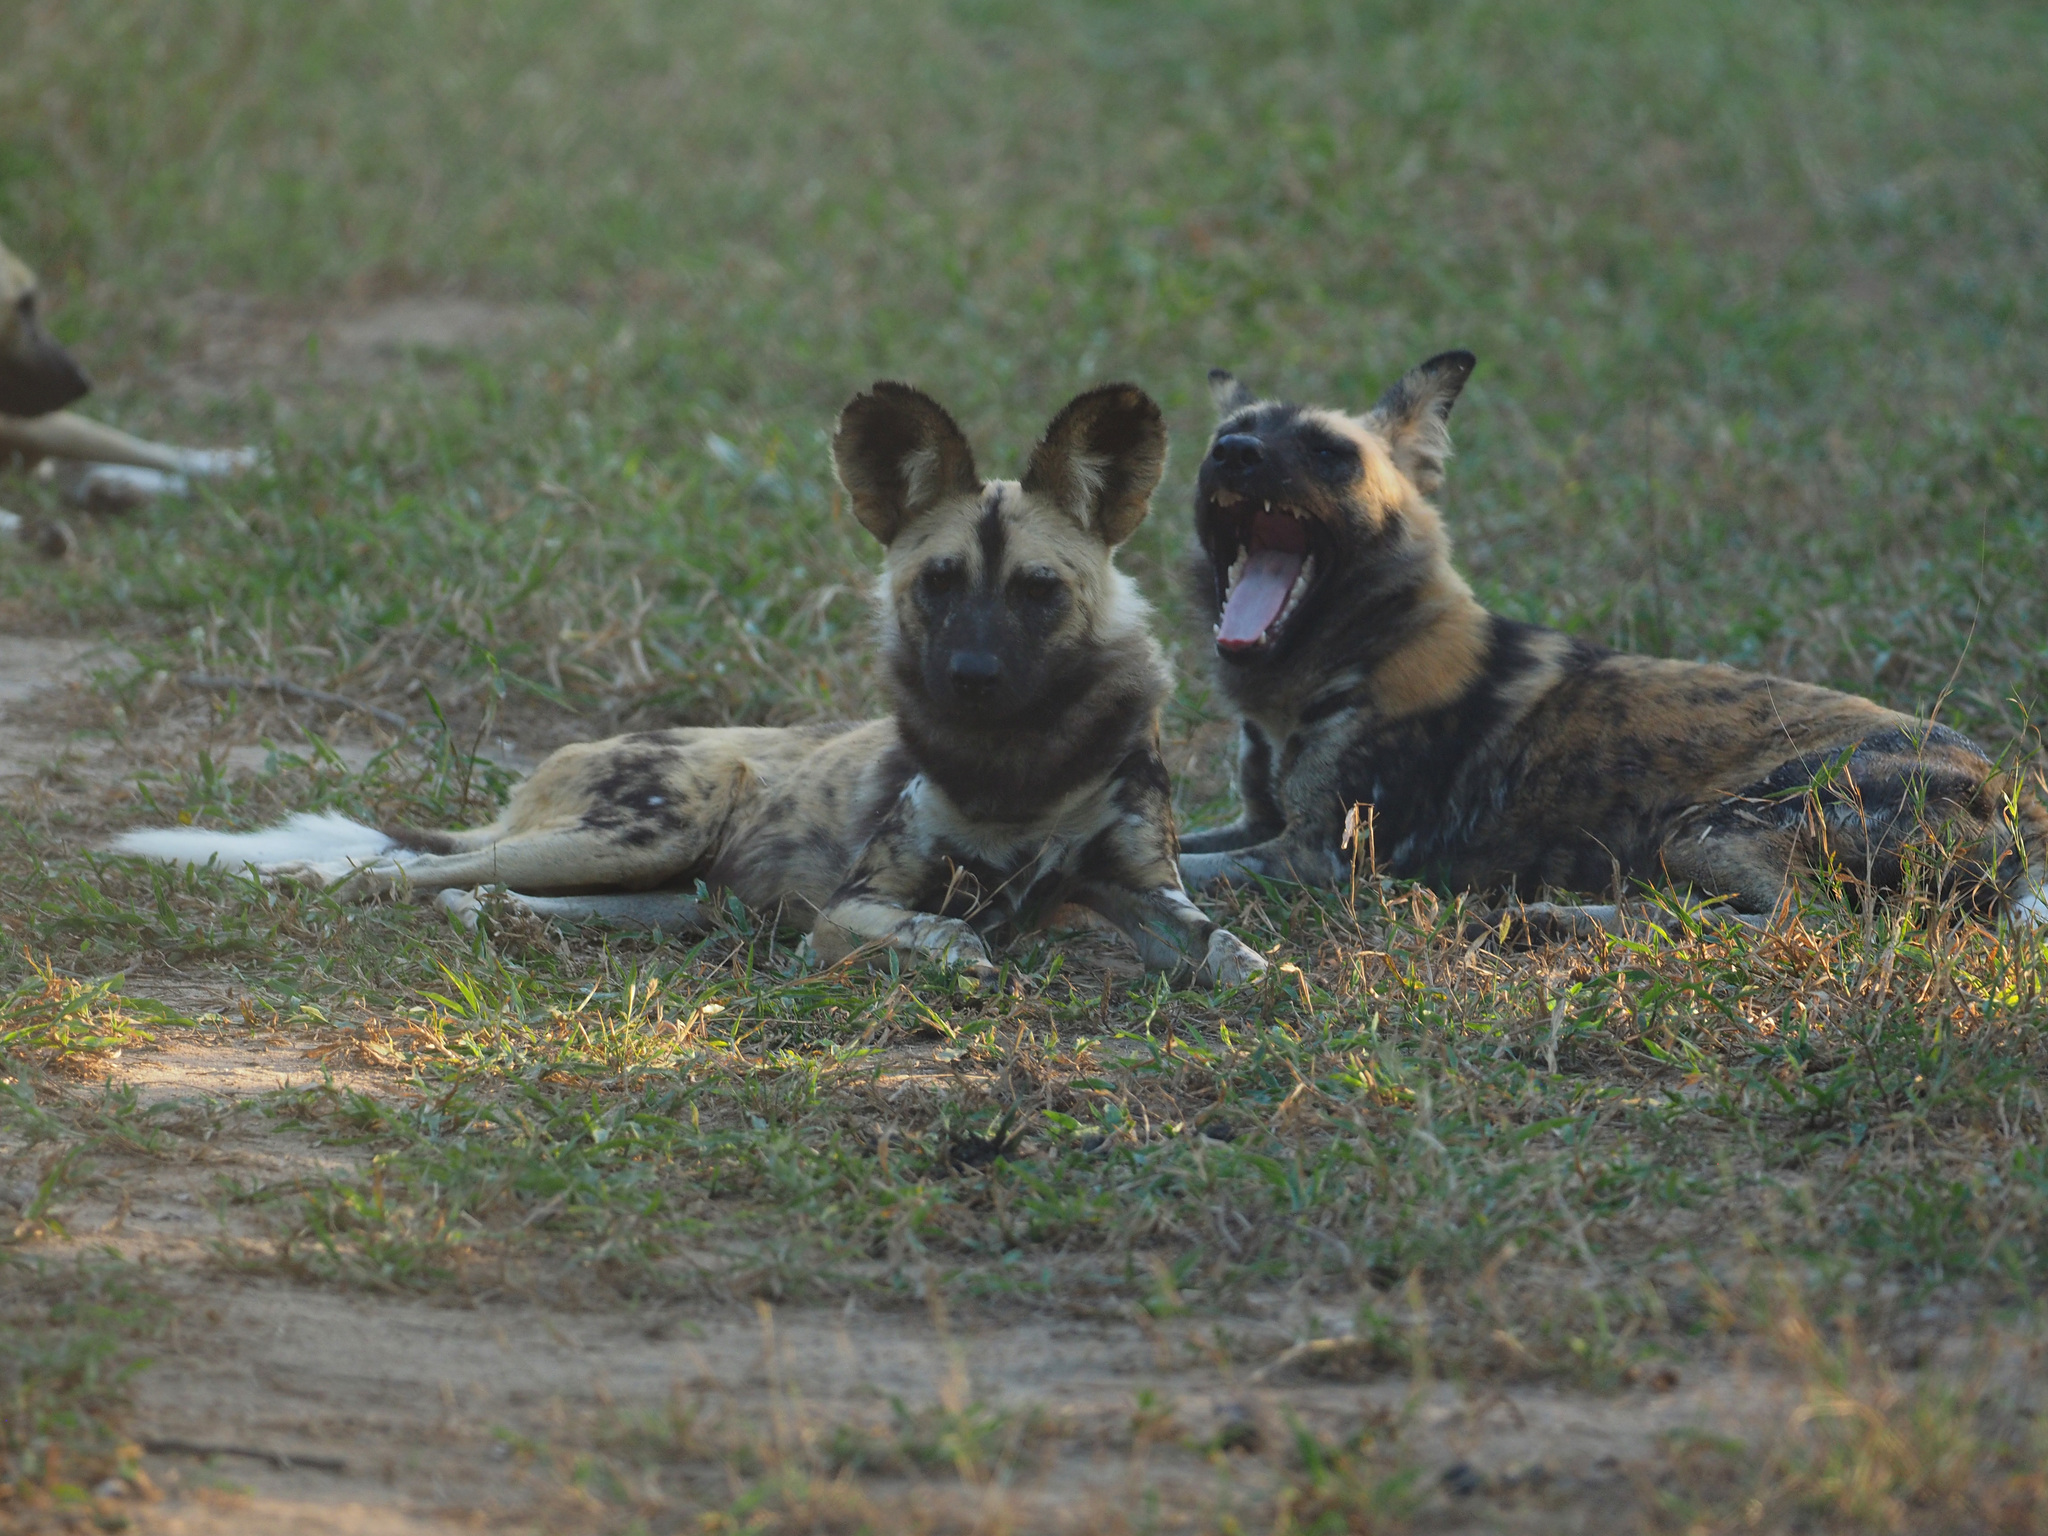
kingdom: Animalia
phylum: Chordata
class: Mammalia
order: Carnivora
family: Canidae
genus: Lycaon
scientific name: Lycaon pictus
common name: African wild dog
